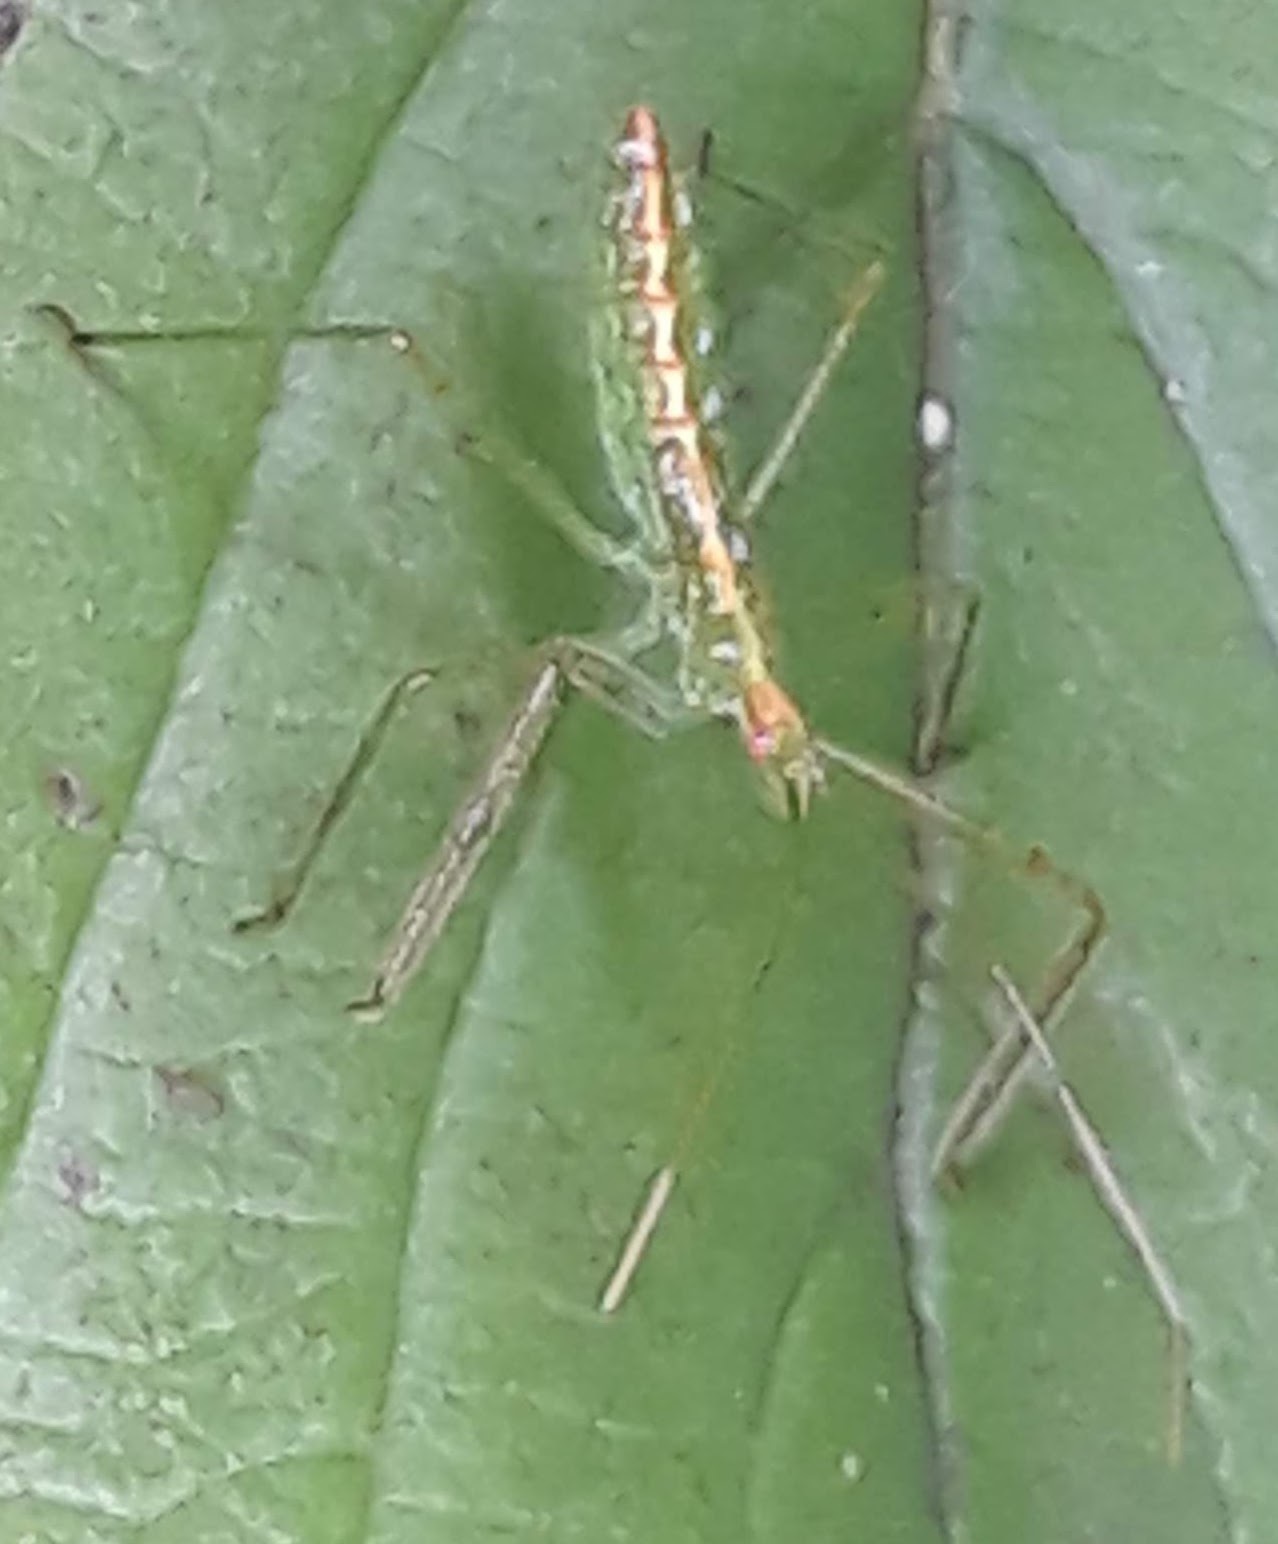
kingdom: Animalia
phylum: Arthropoda
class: Insecta
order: Hemiptera
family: Reduviidae
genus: Zelus
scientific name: Zelus luridus
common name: Pale green assassin bug
